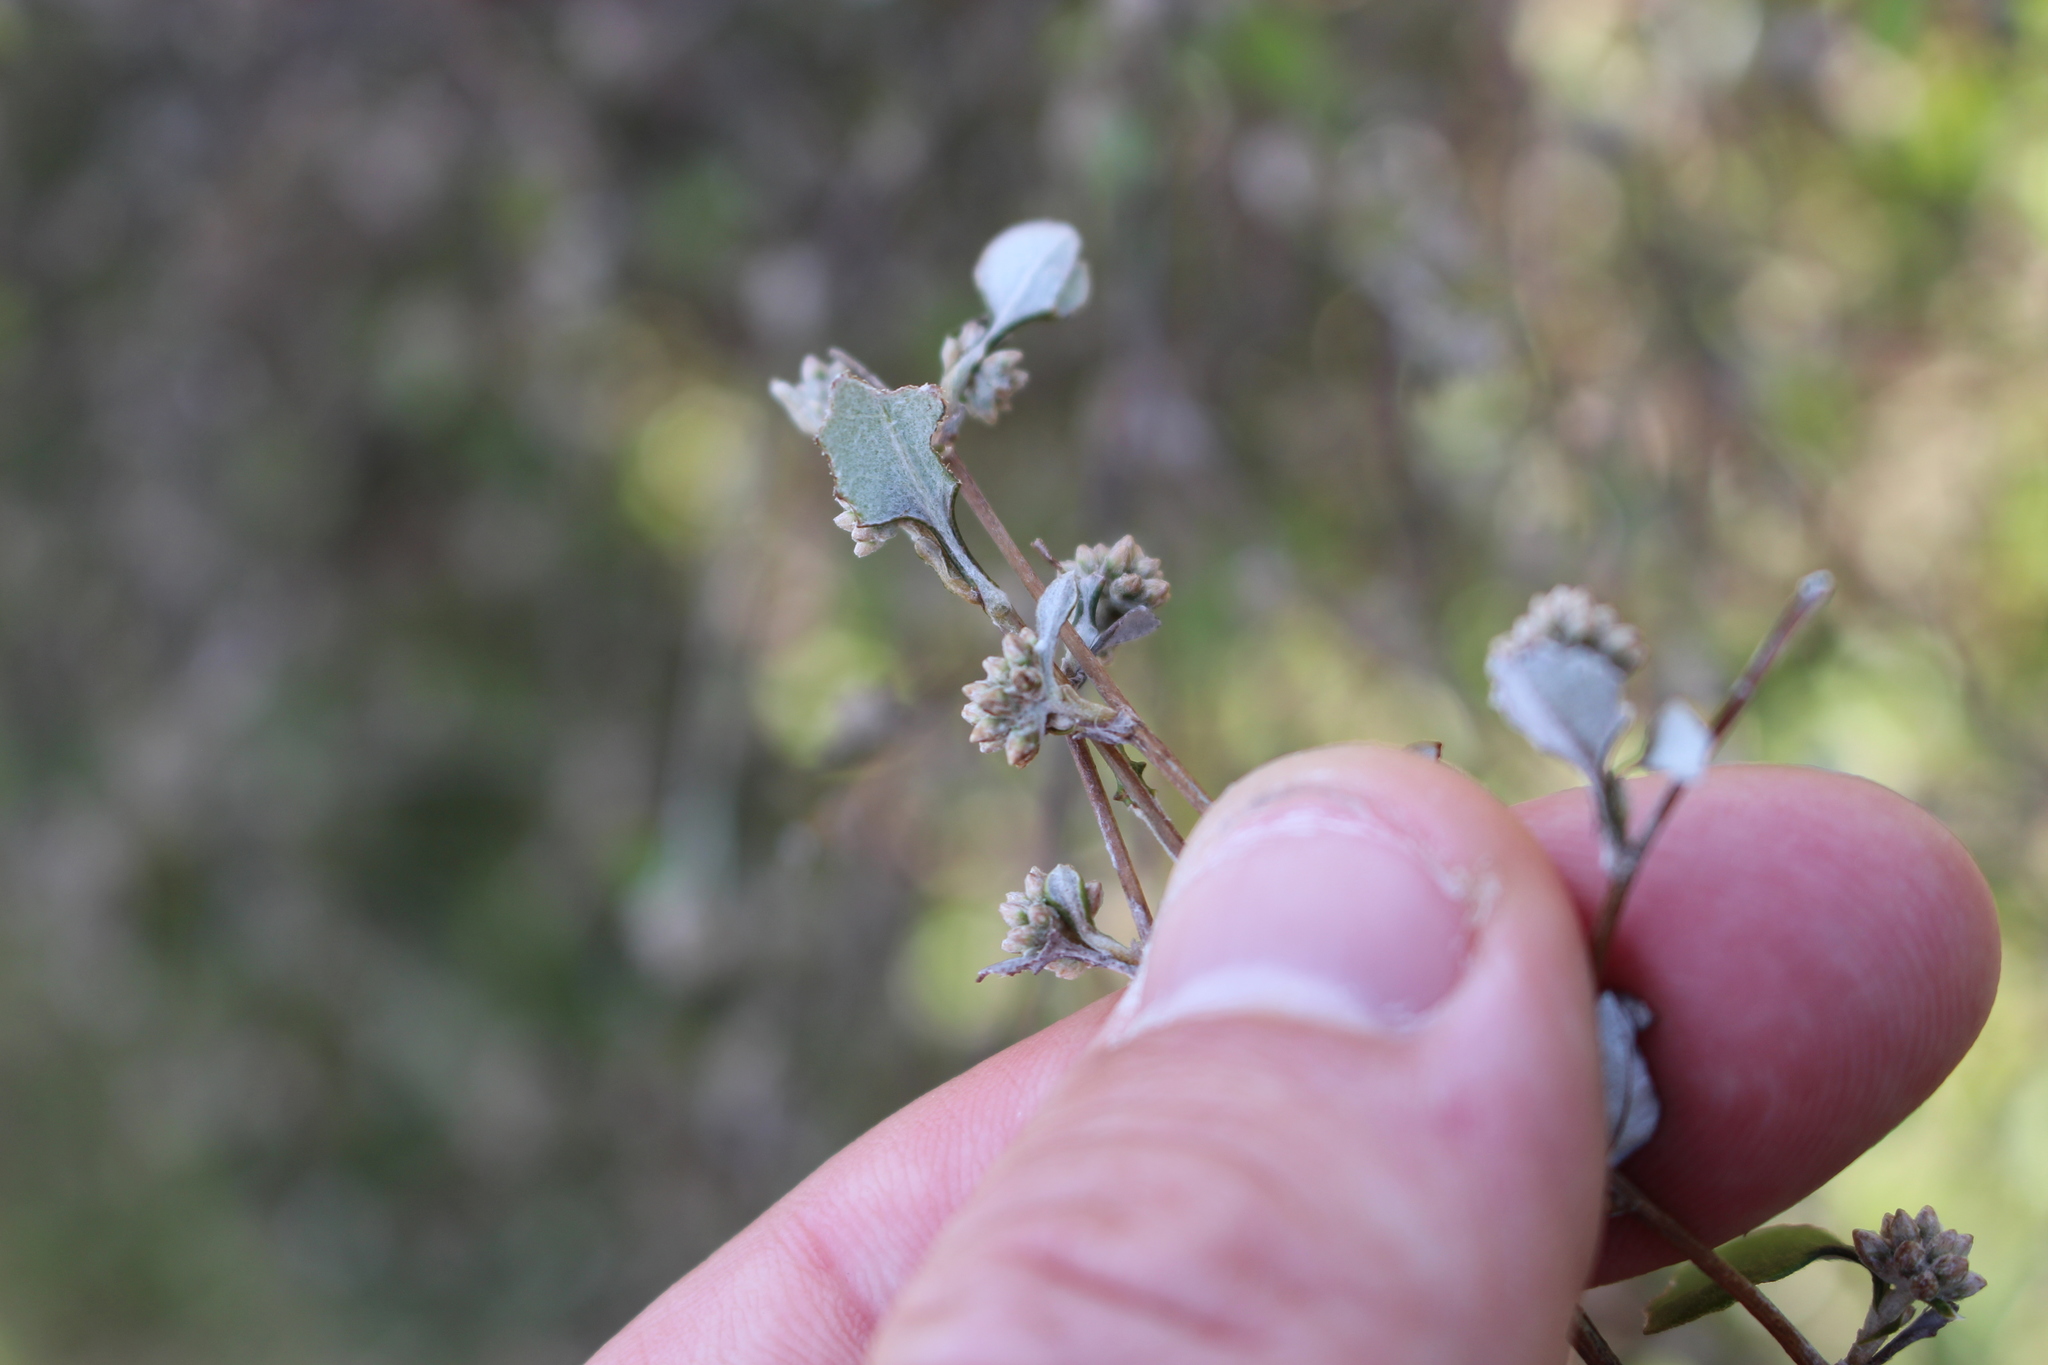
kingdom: Plantae
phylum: Tracheophyta
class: Magnoliopsida
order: Asterales
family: Asteraceae
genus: Ozothamnus
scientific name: Ozothamnus glomeratus
